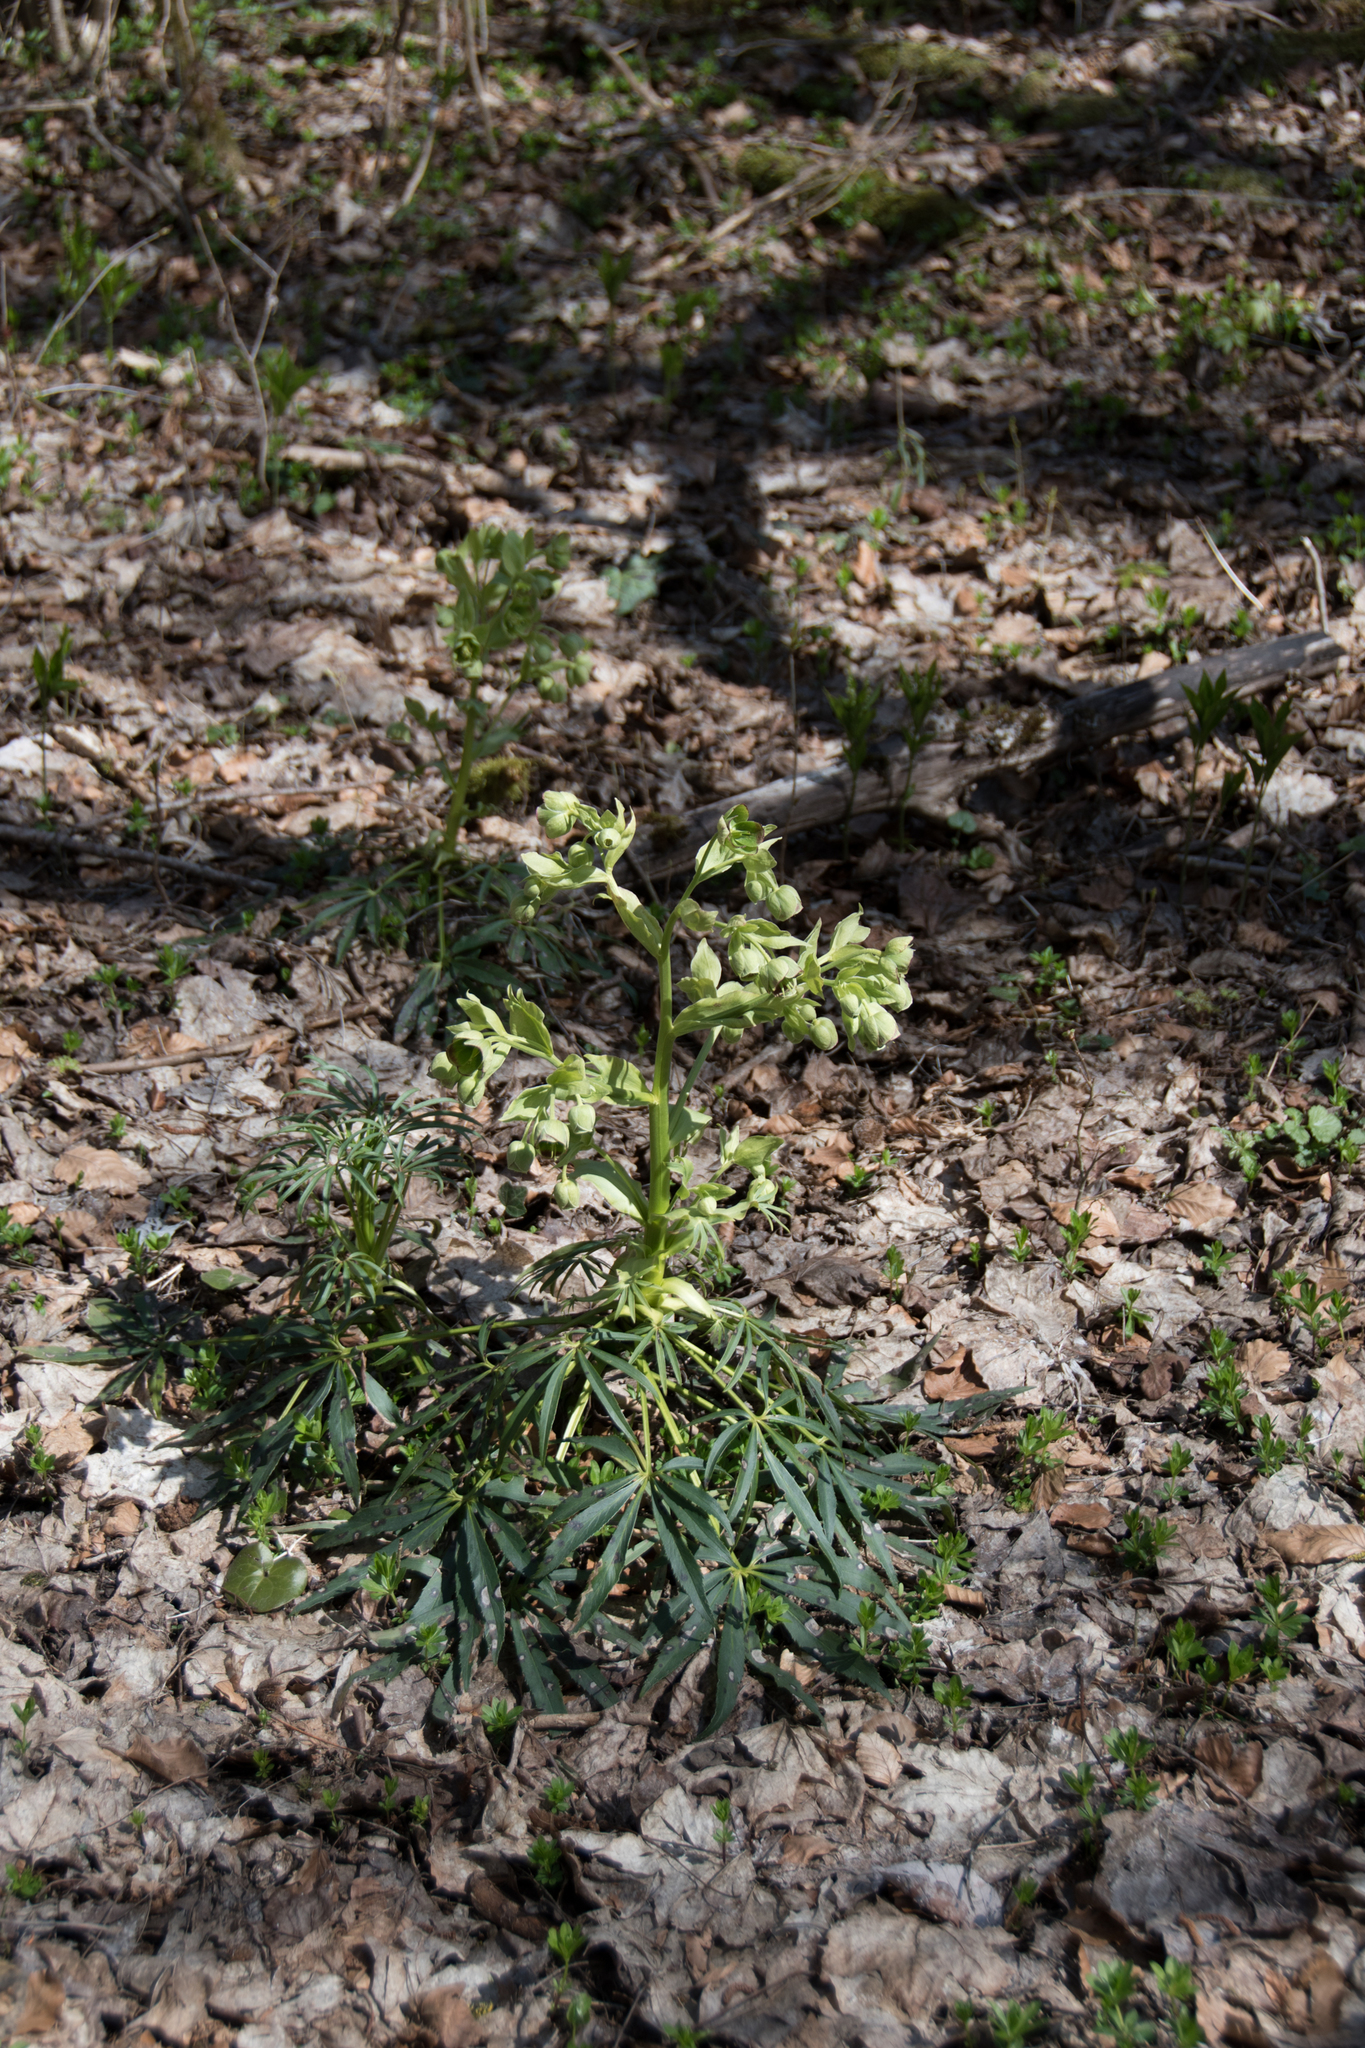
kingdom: Plantae
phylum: Tracheophyta
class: Magnoliopsida
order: Ranunculales
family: Ranunculaceae
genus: Helleborus
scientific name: Helleborus foetidus
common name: Stinking hellebore
